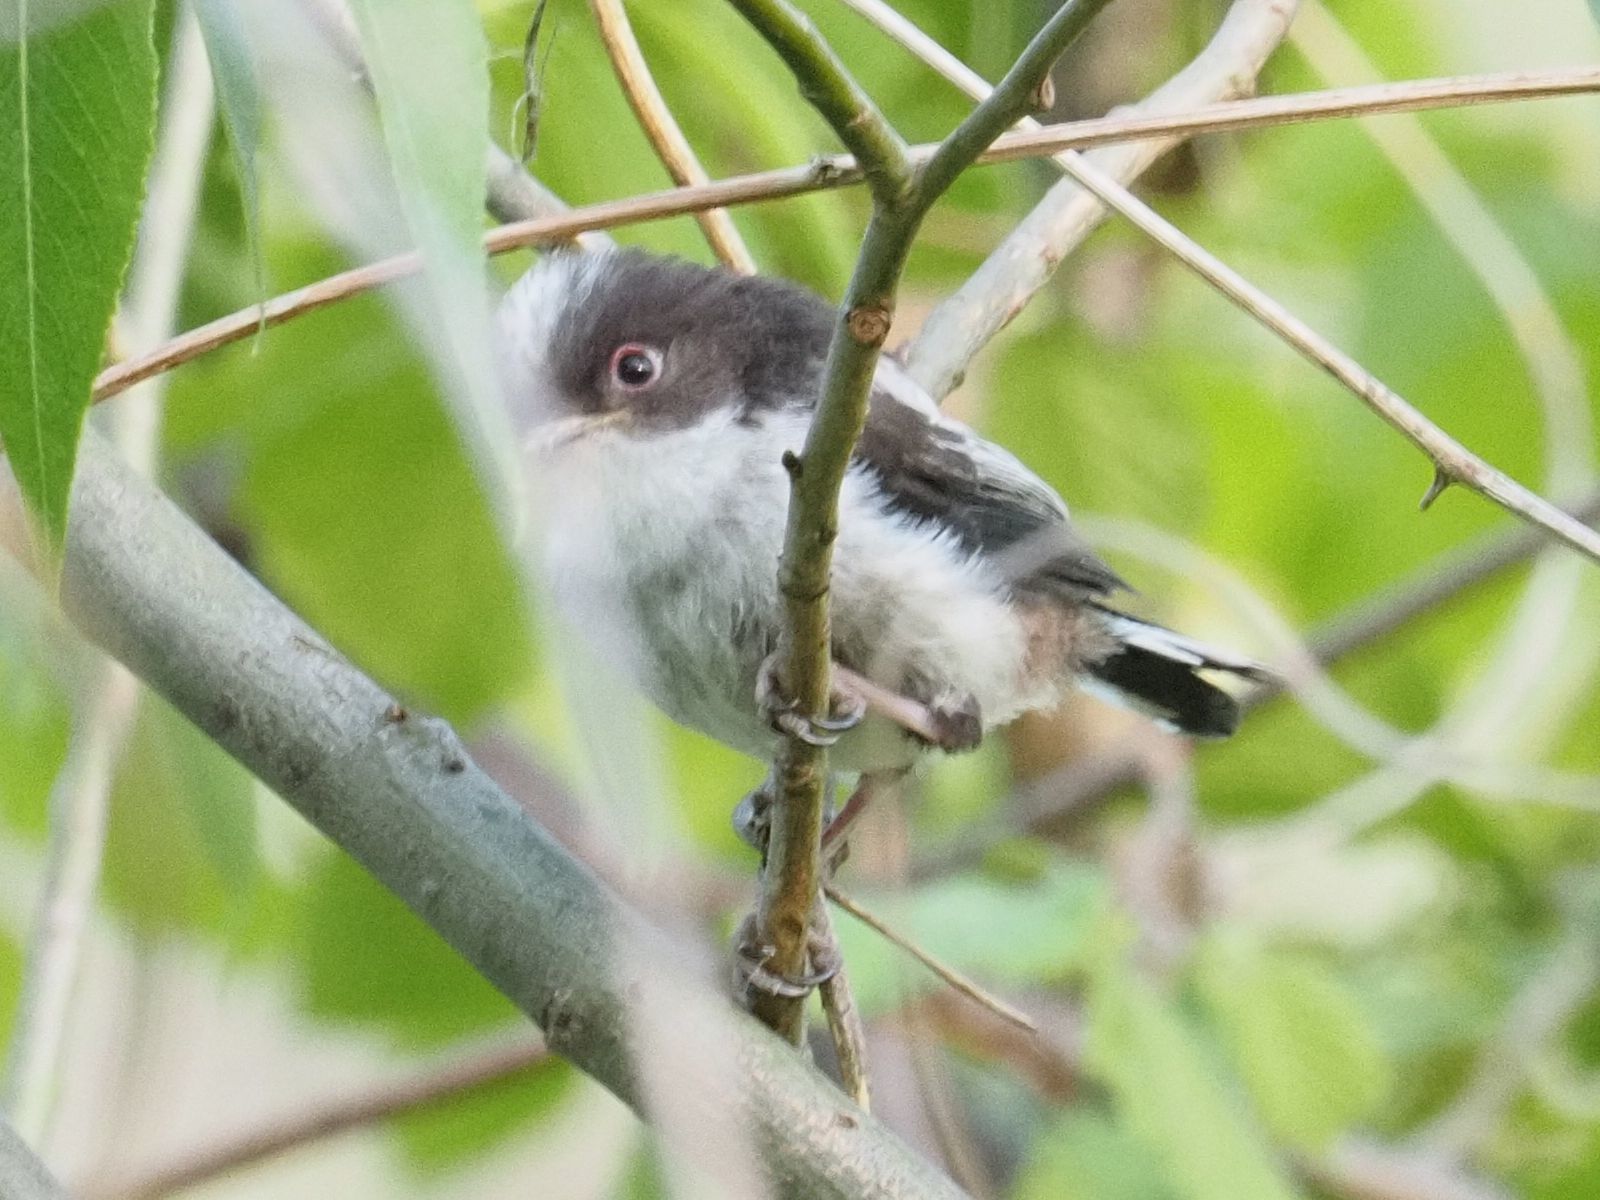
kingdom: Animalia
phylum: Chordata
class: Aves
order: Passeriformes
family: Aegithalidae
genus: Aegithalos
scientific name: Aegithalos caudatus
